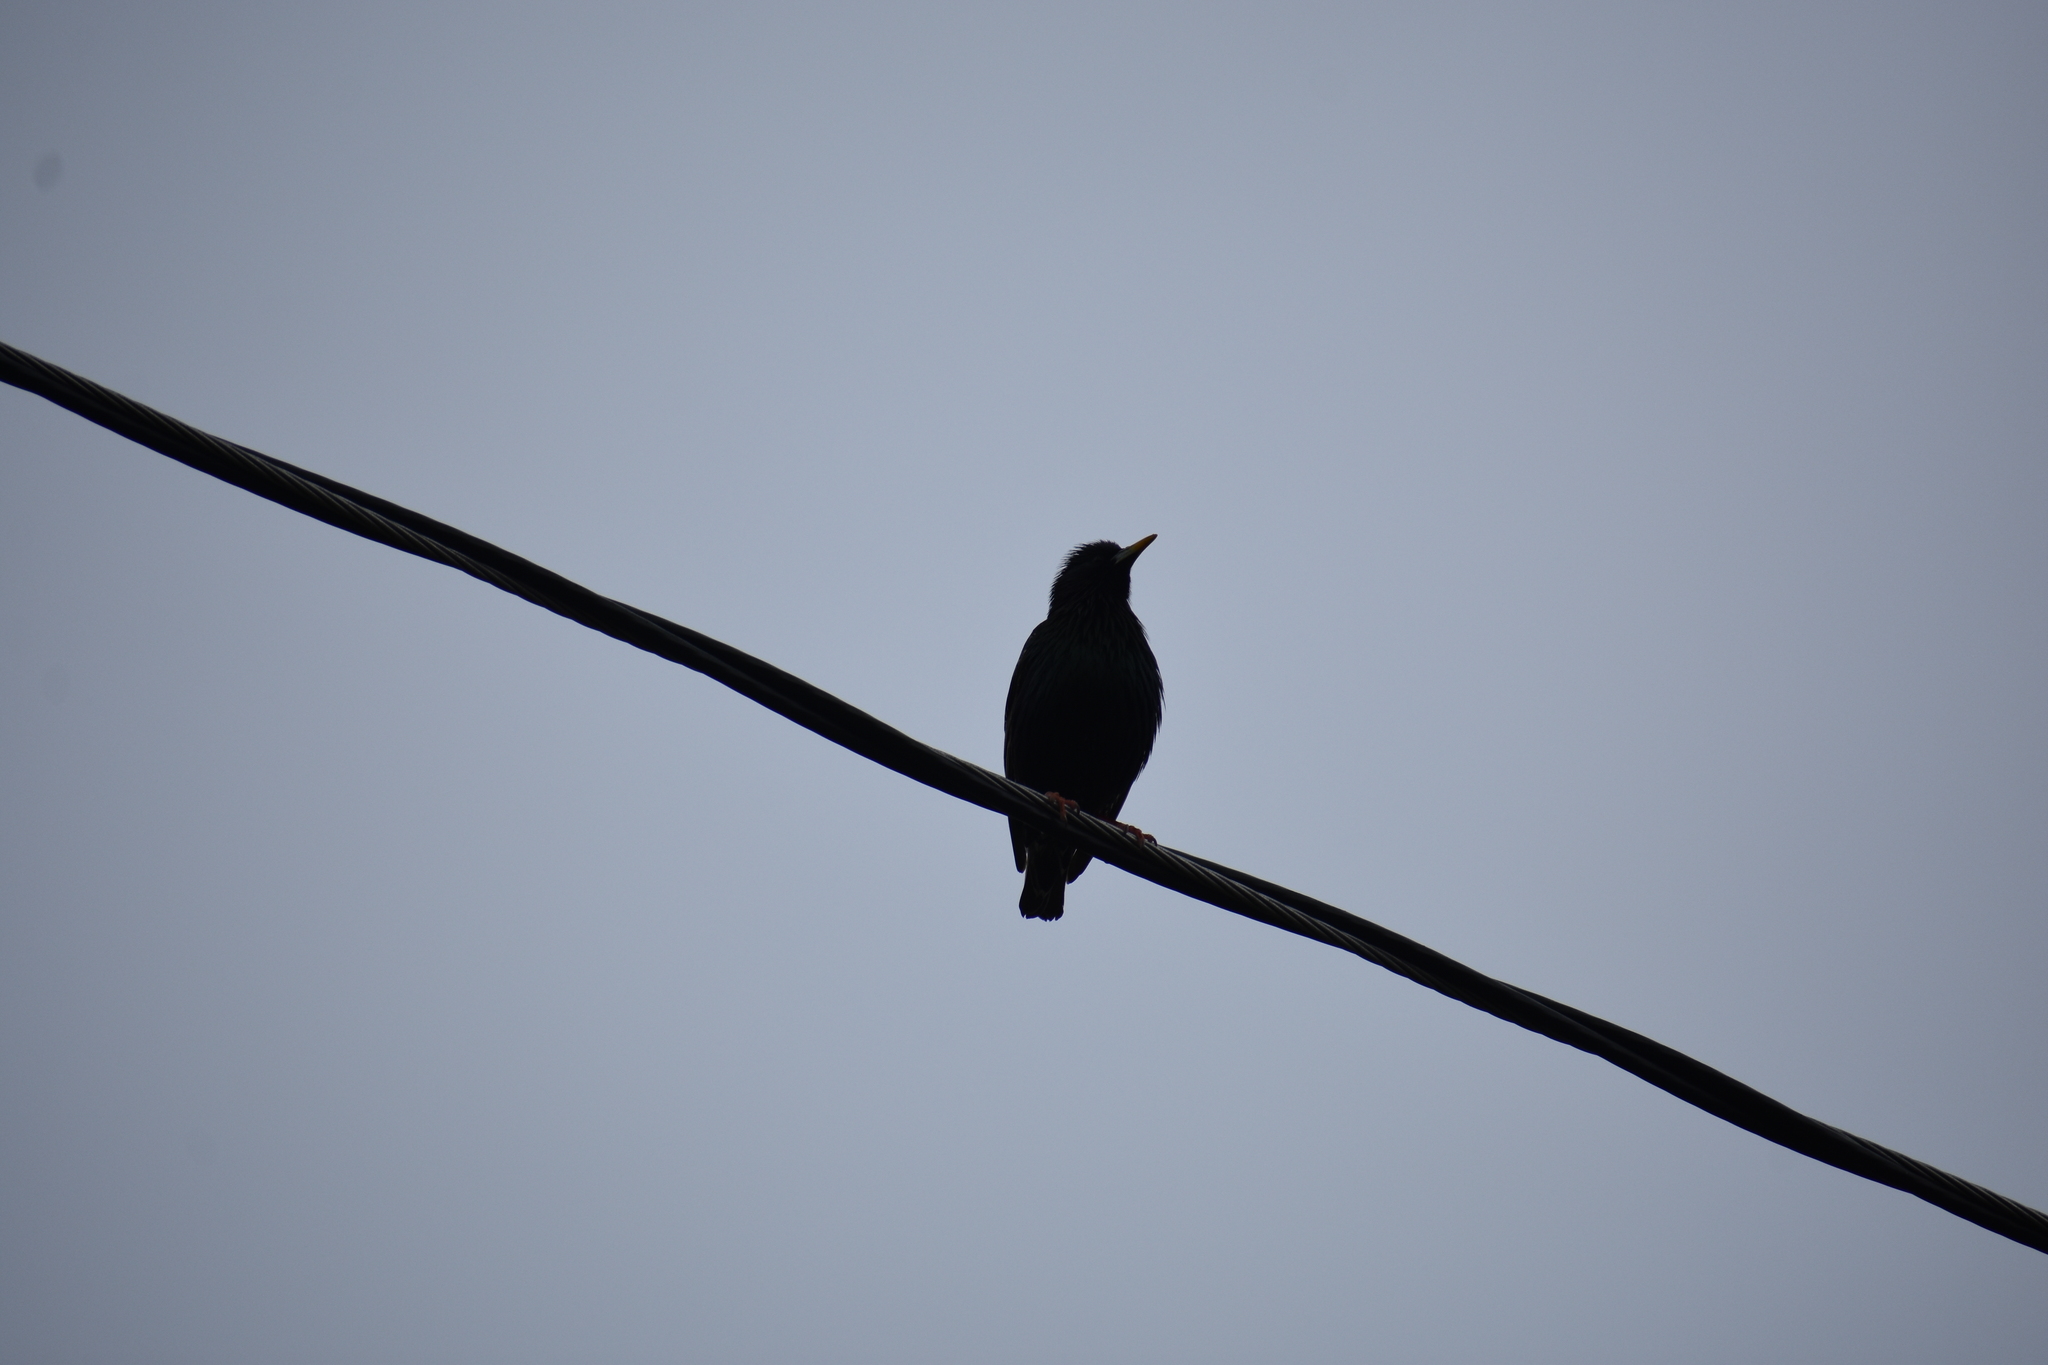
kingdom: Animalia
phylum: Chordata
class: Aves
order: Passeriformes
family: Sturnidae
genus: Sturnus
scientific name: Sturnus vulgaris
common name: Common starling
